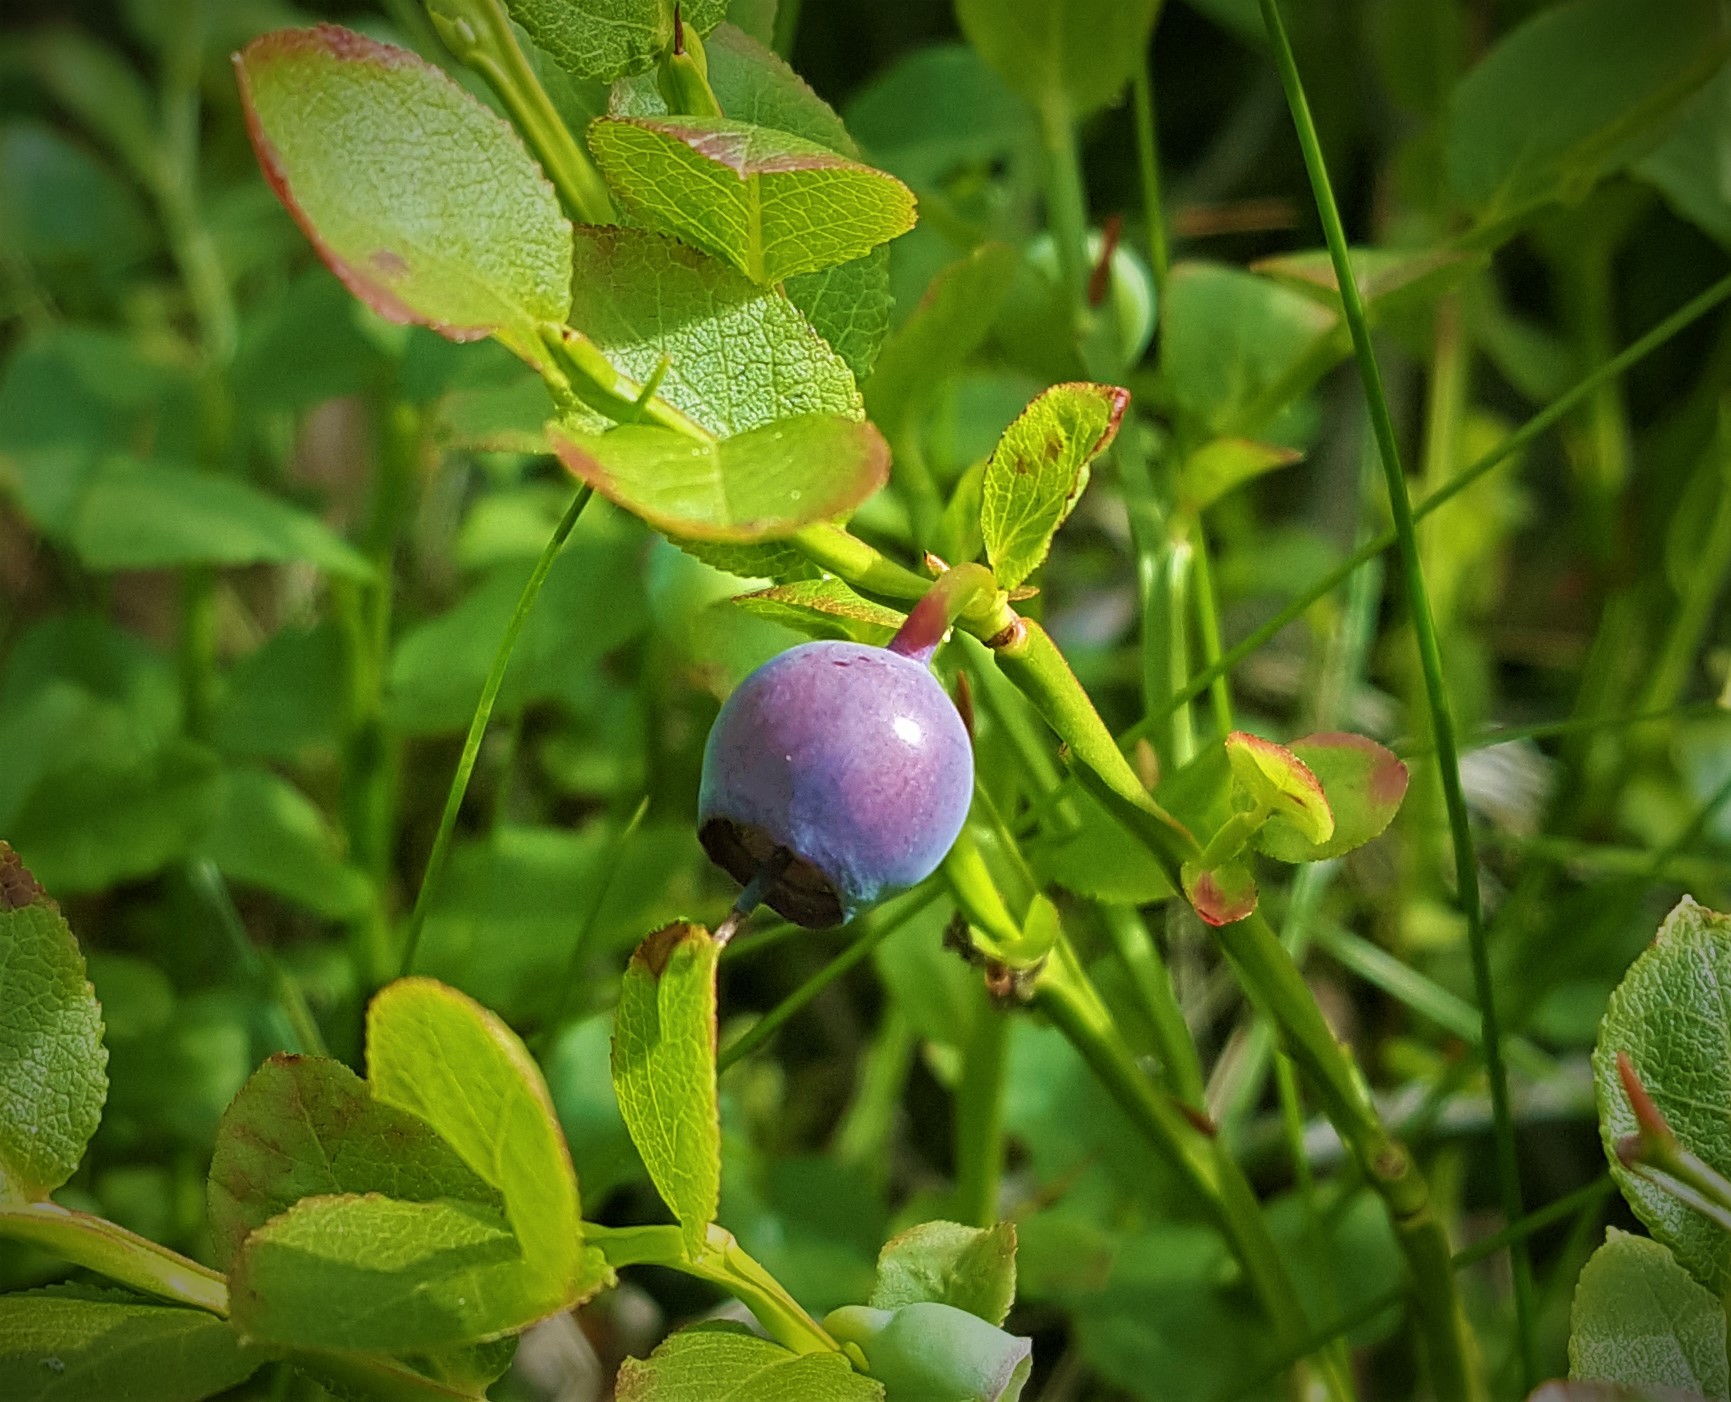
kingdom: Plantae
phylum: Tracheophyta
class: Magnoliopsida
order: Ericales
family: Ericaceae
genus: Vaccinium
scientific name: Vaccinium myrtillus
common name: Bilberry
